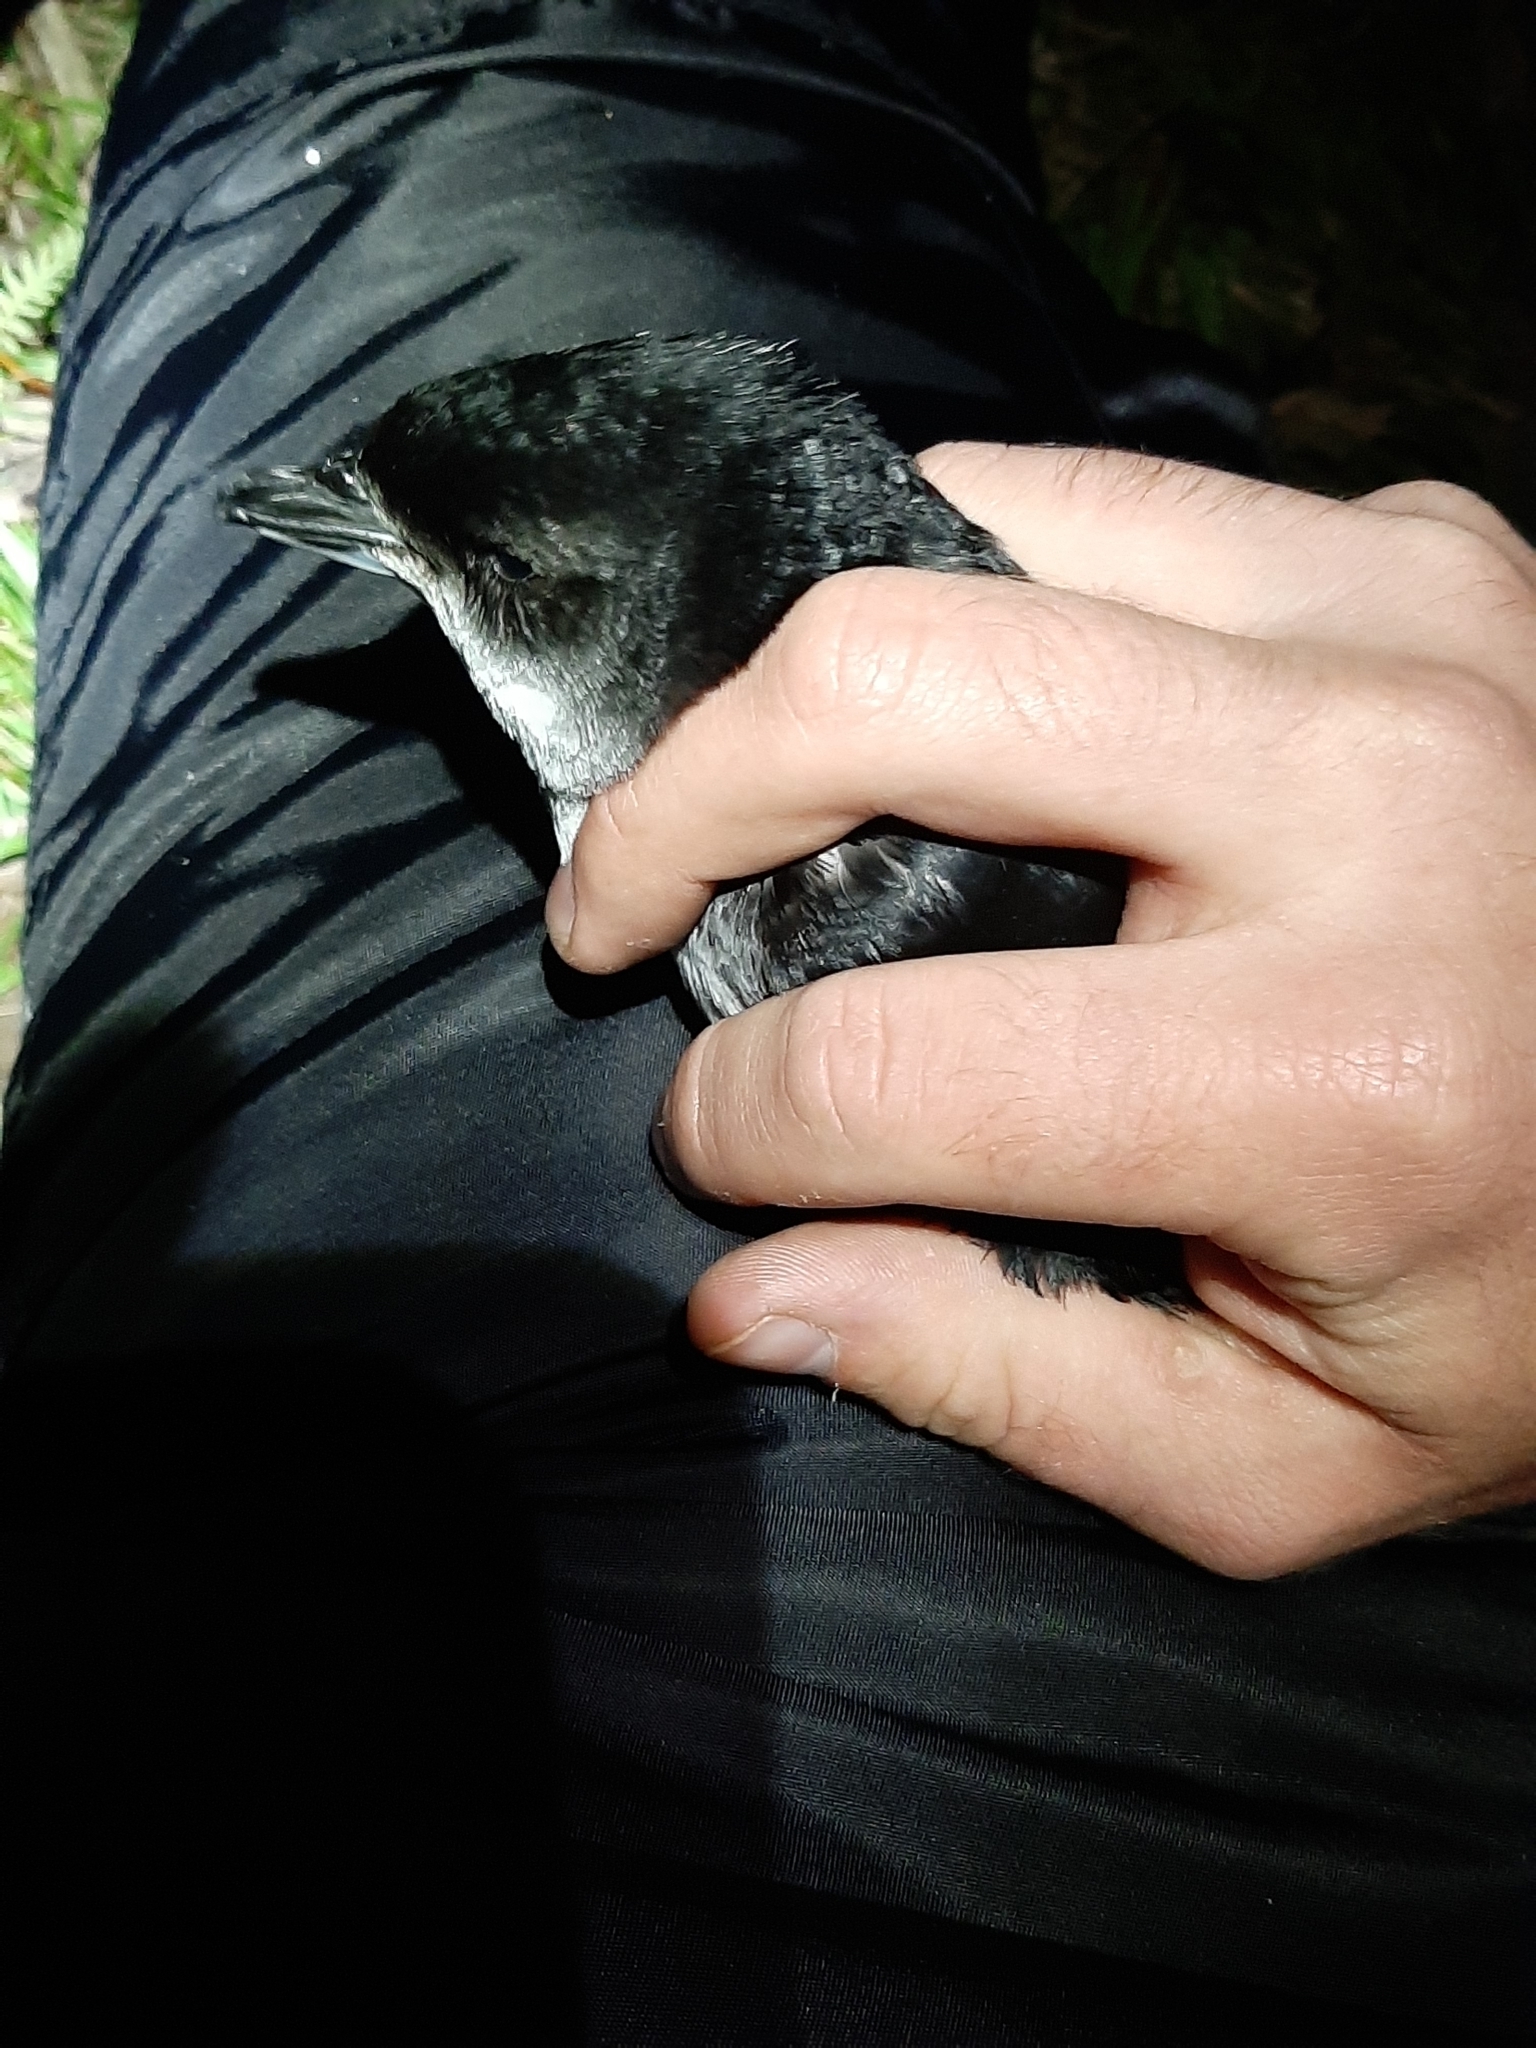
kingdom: Animalia
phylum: Chordata
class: Aves
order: Procellariiformes
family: Pelecanoididae
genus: Pelecanoides
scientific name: Pelecanoides urinatrix
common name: Common diving-petrel
